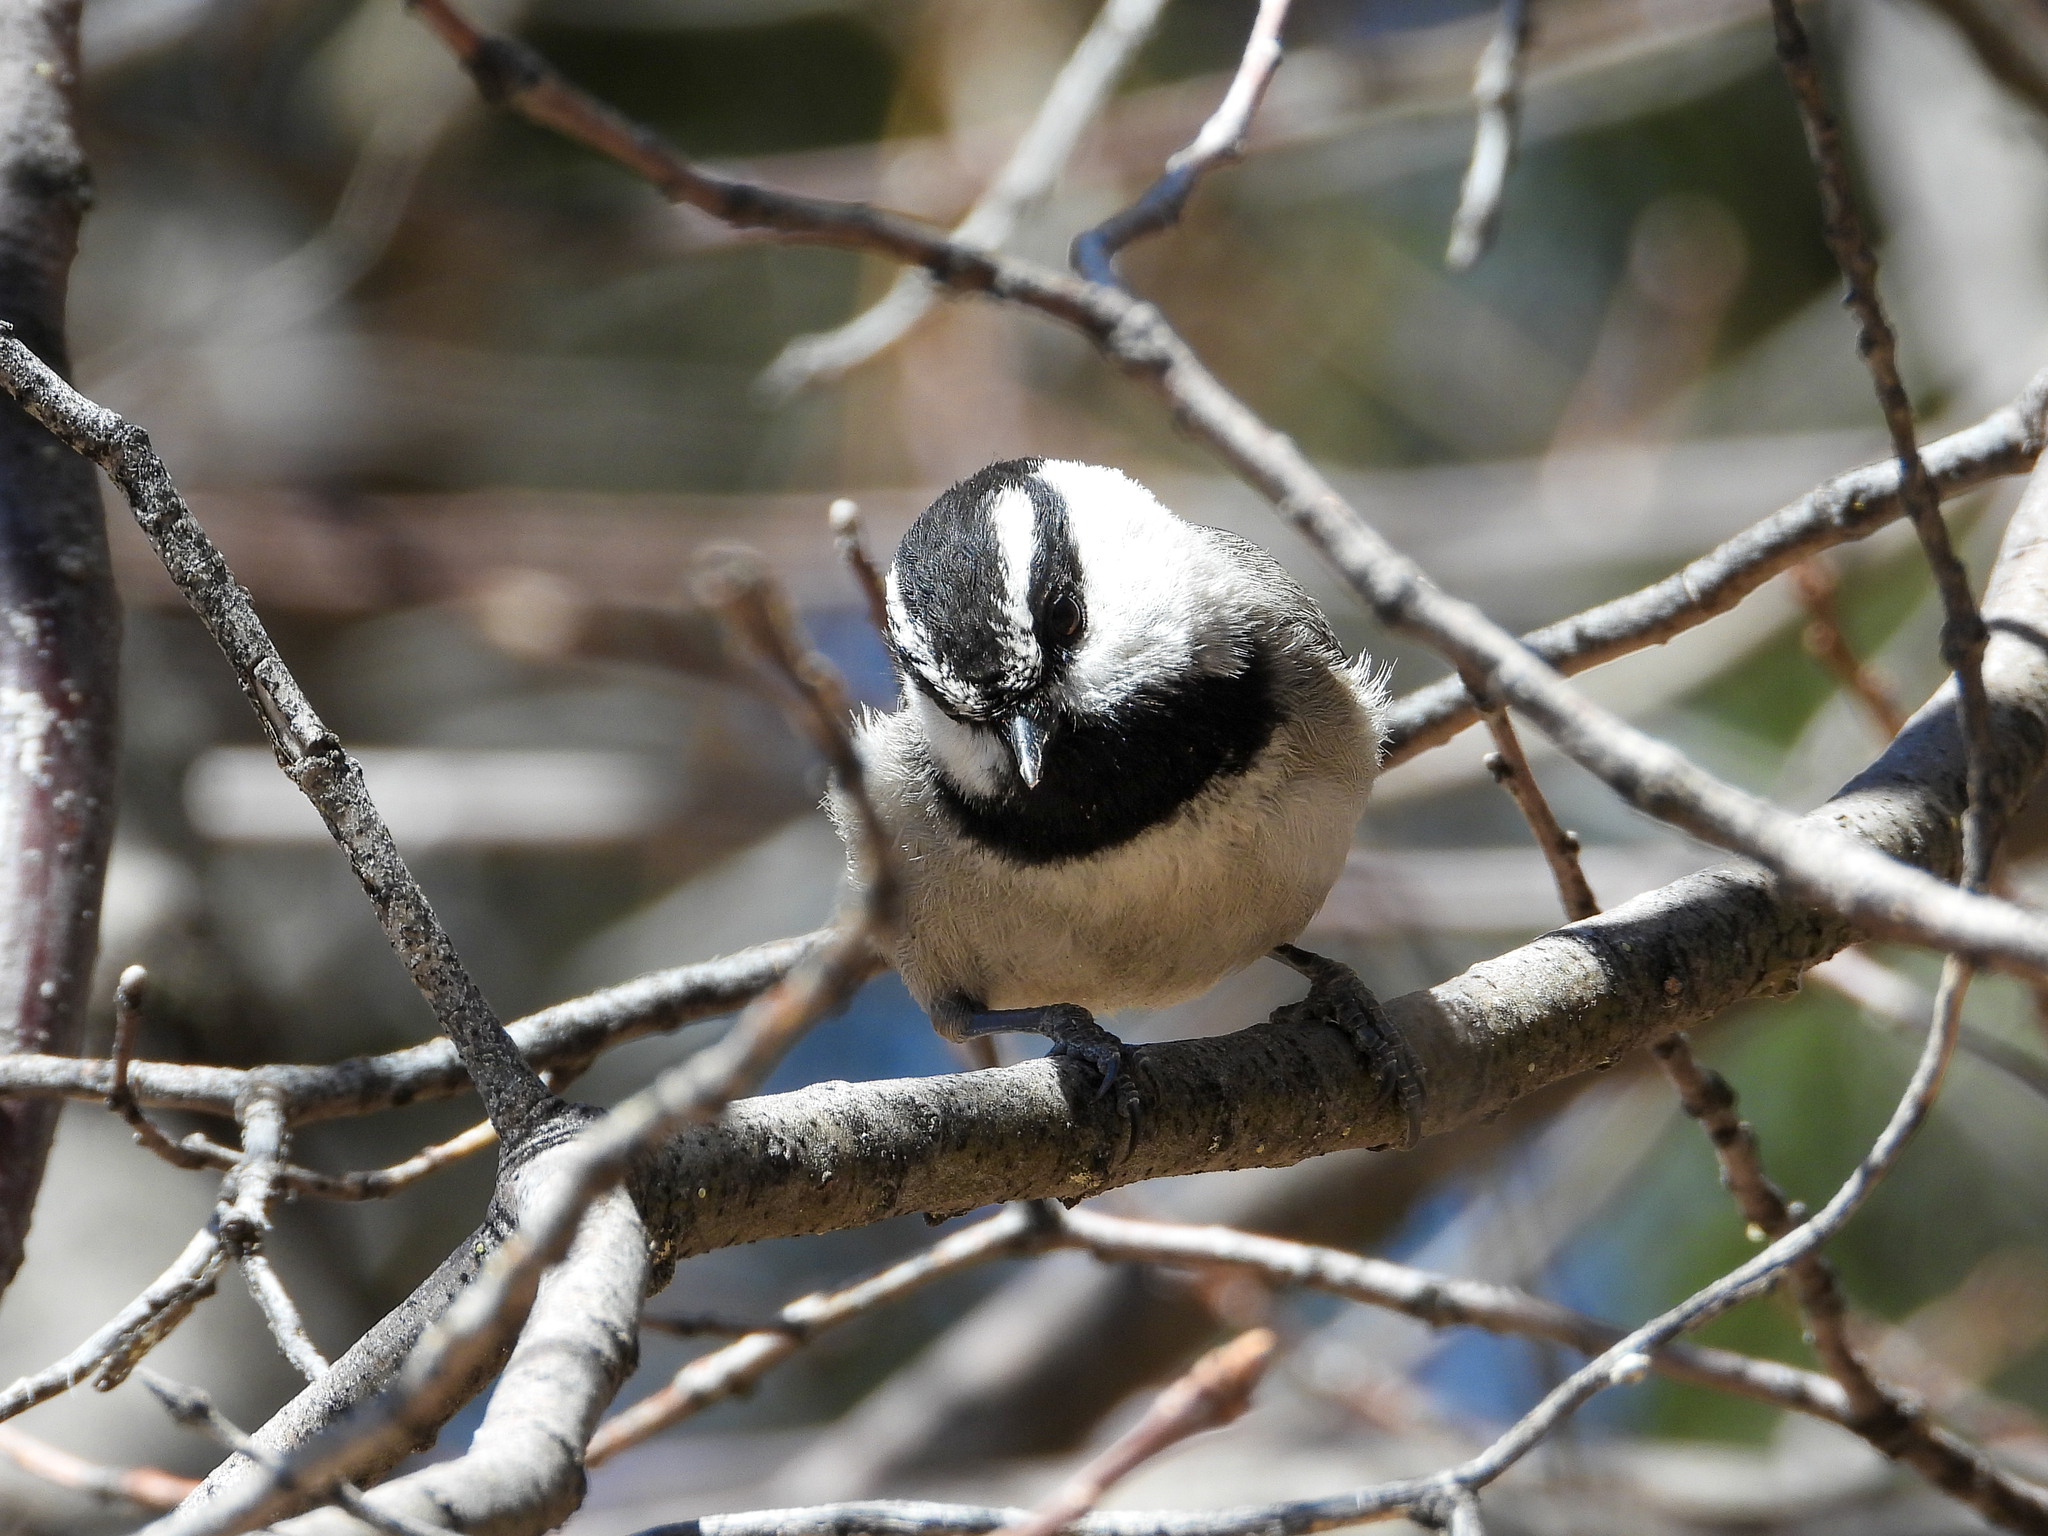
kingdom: Animalia
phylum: Chordata
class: Aves
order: Passeriformes
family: Paridae
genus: Poecile
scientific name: Poecile gambeli
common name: Mountain chickadee
